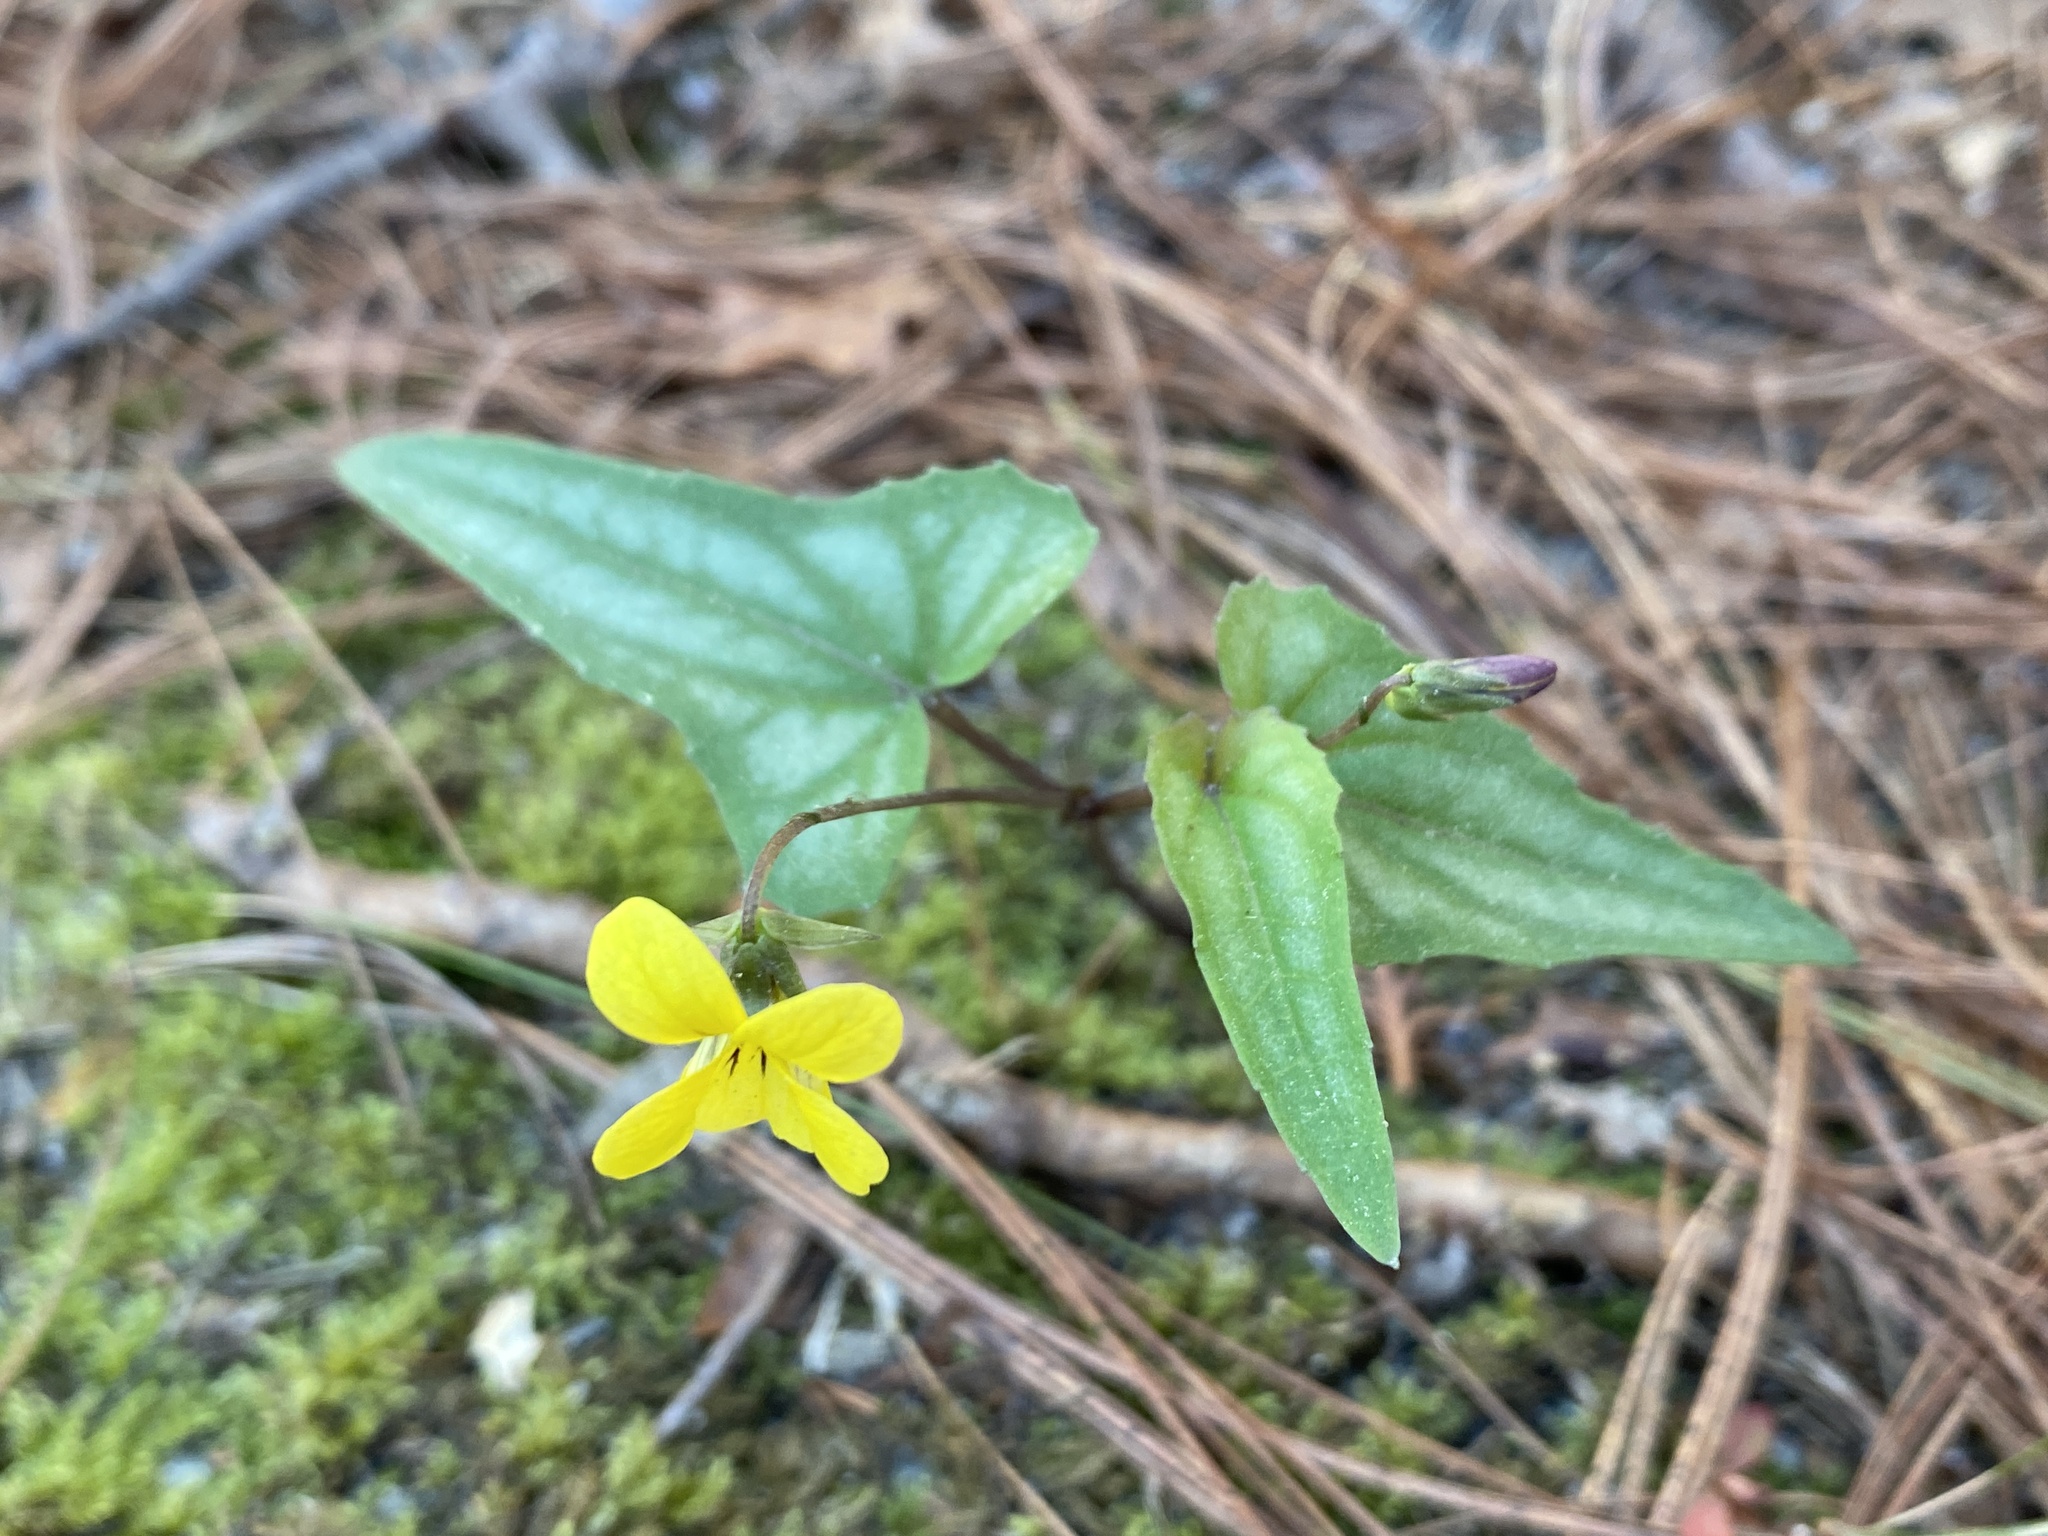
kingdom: Plantae
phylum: Tracheophyta
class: Magnoliopsida
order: Malpighiales
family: Violaceae
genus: Viola
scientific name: Viola hastata
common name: Spear-leaf violet
